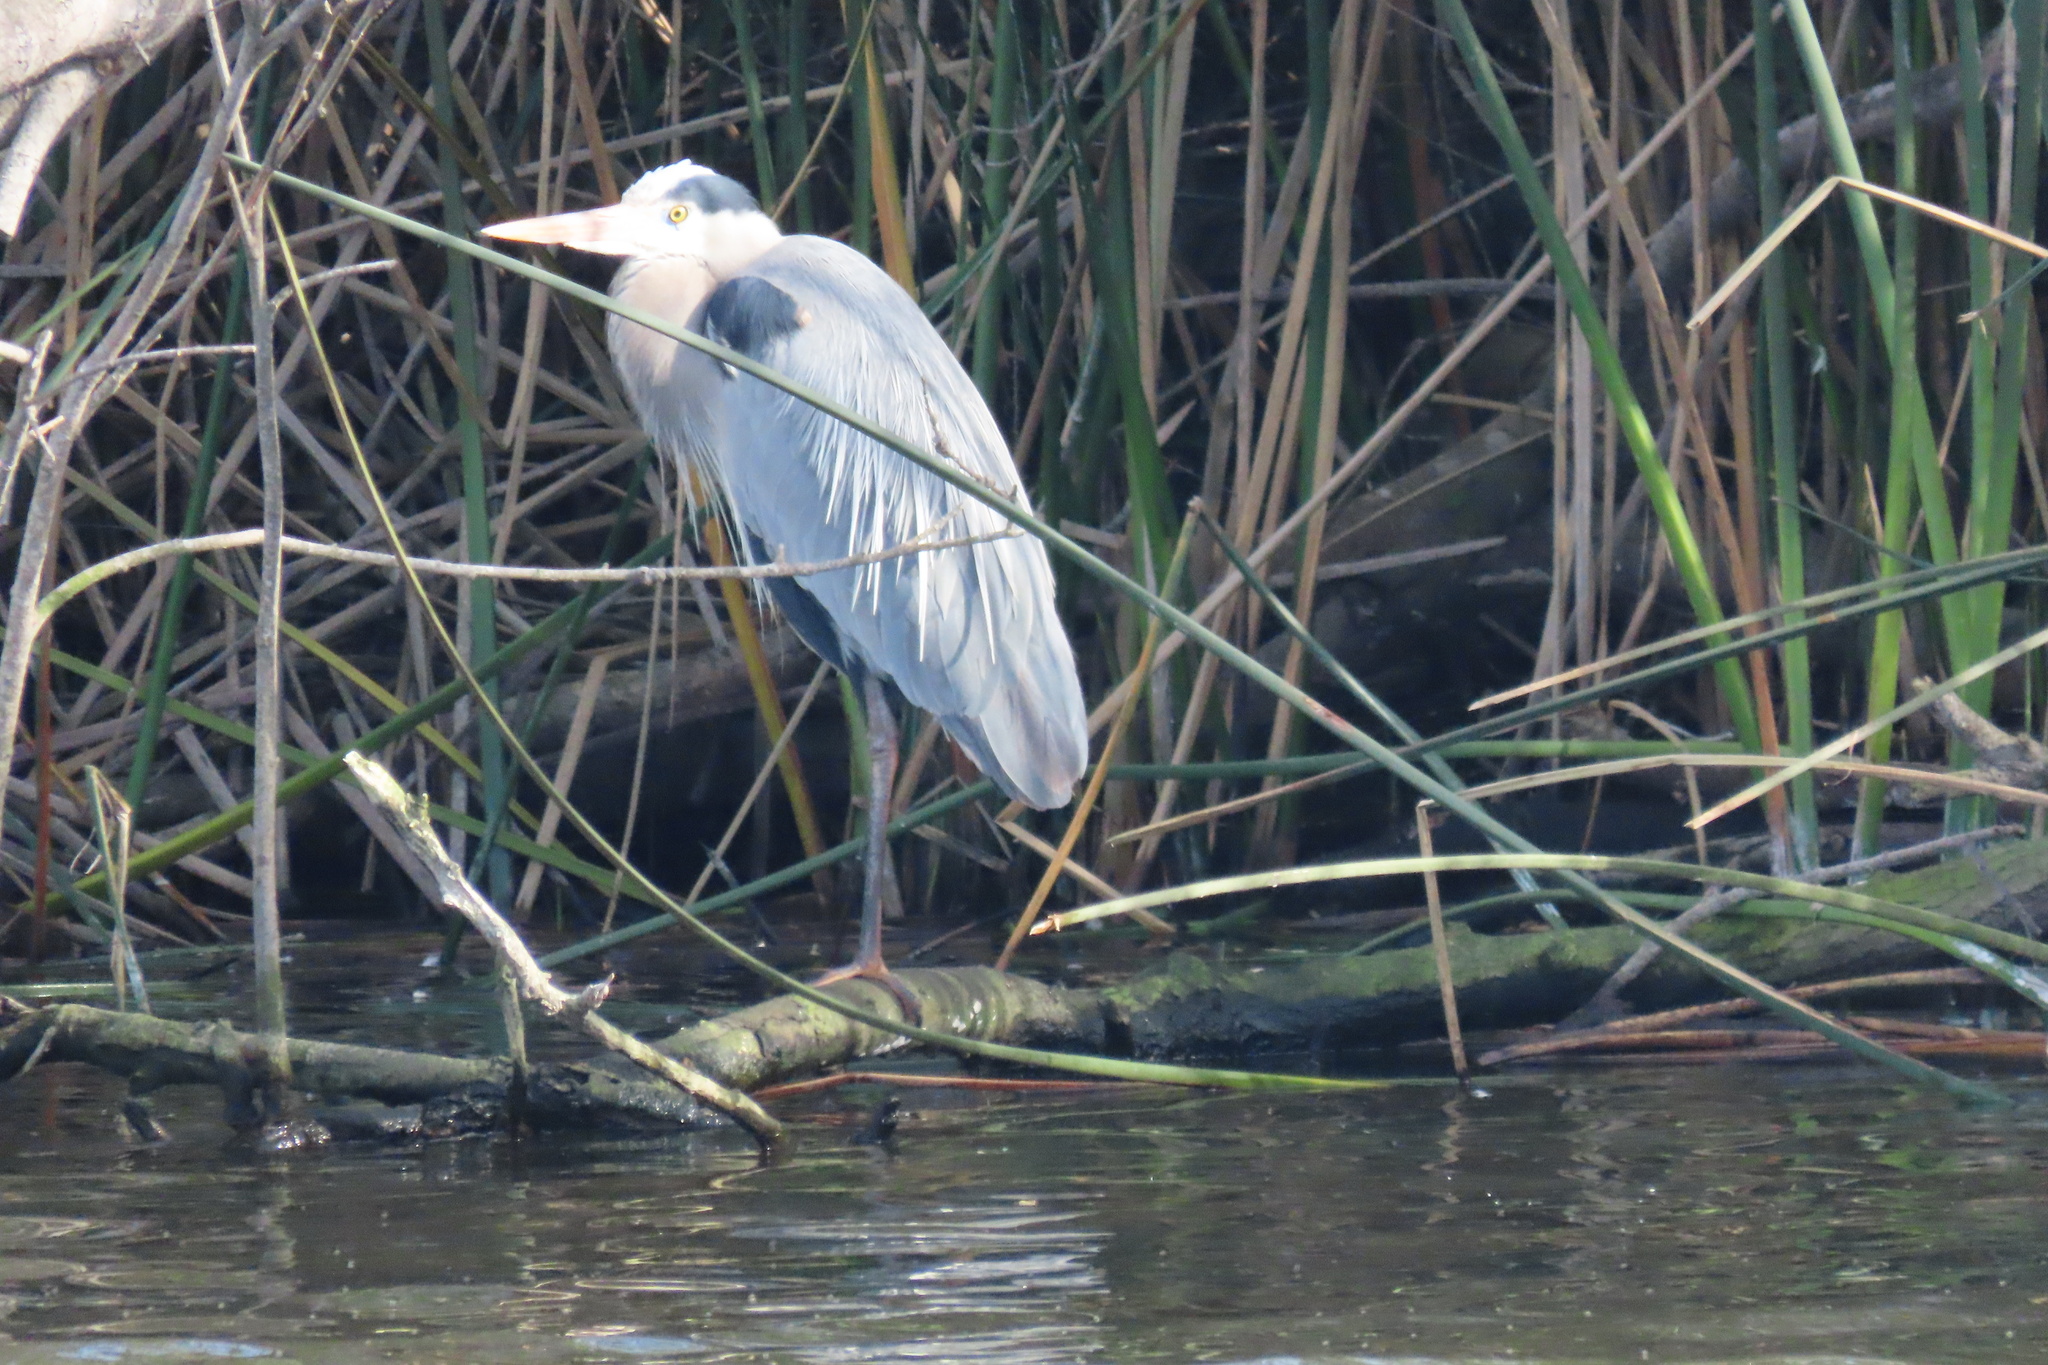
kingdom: Animalia
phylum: Chordata
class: Aves
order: Pelecaniformes
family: Ardeidae
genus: Ardea
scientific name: Ardea herodias
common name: Great blue heron
